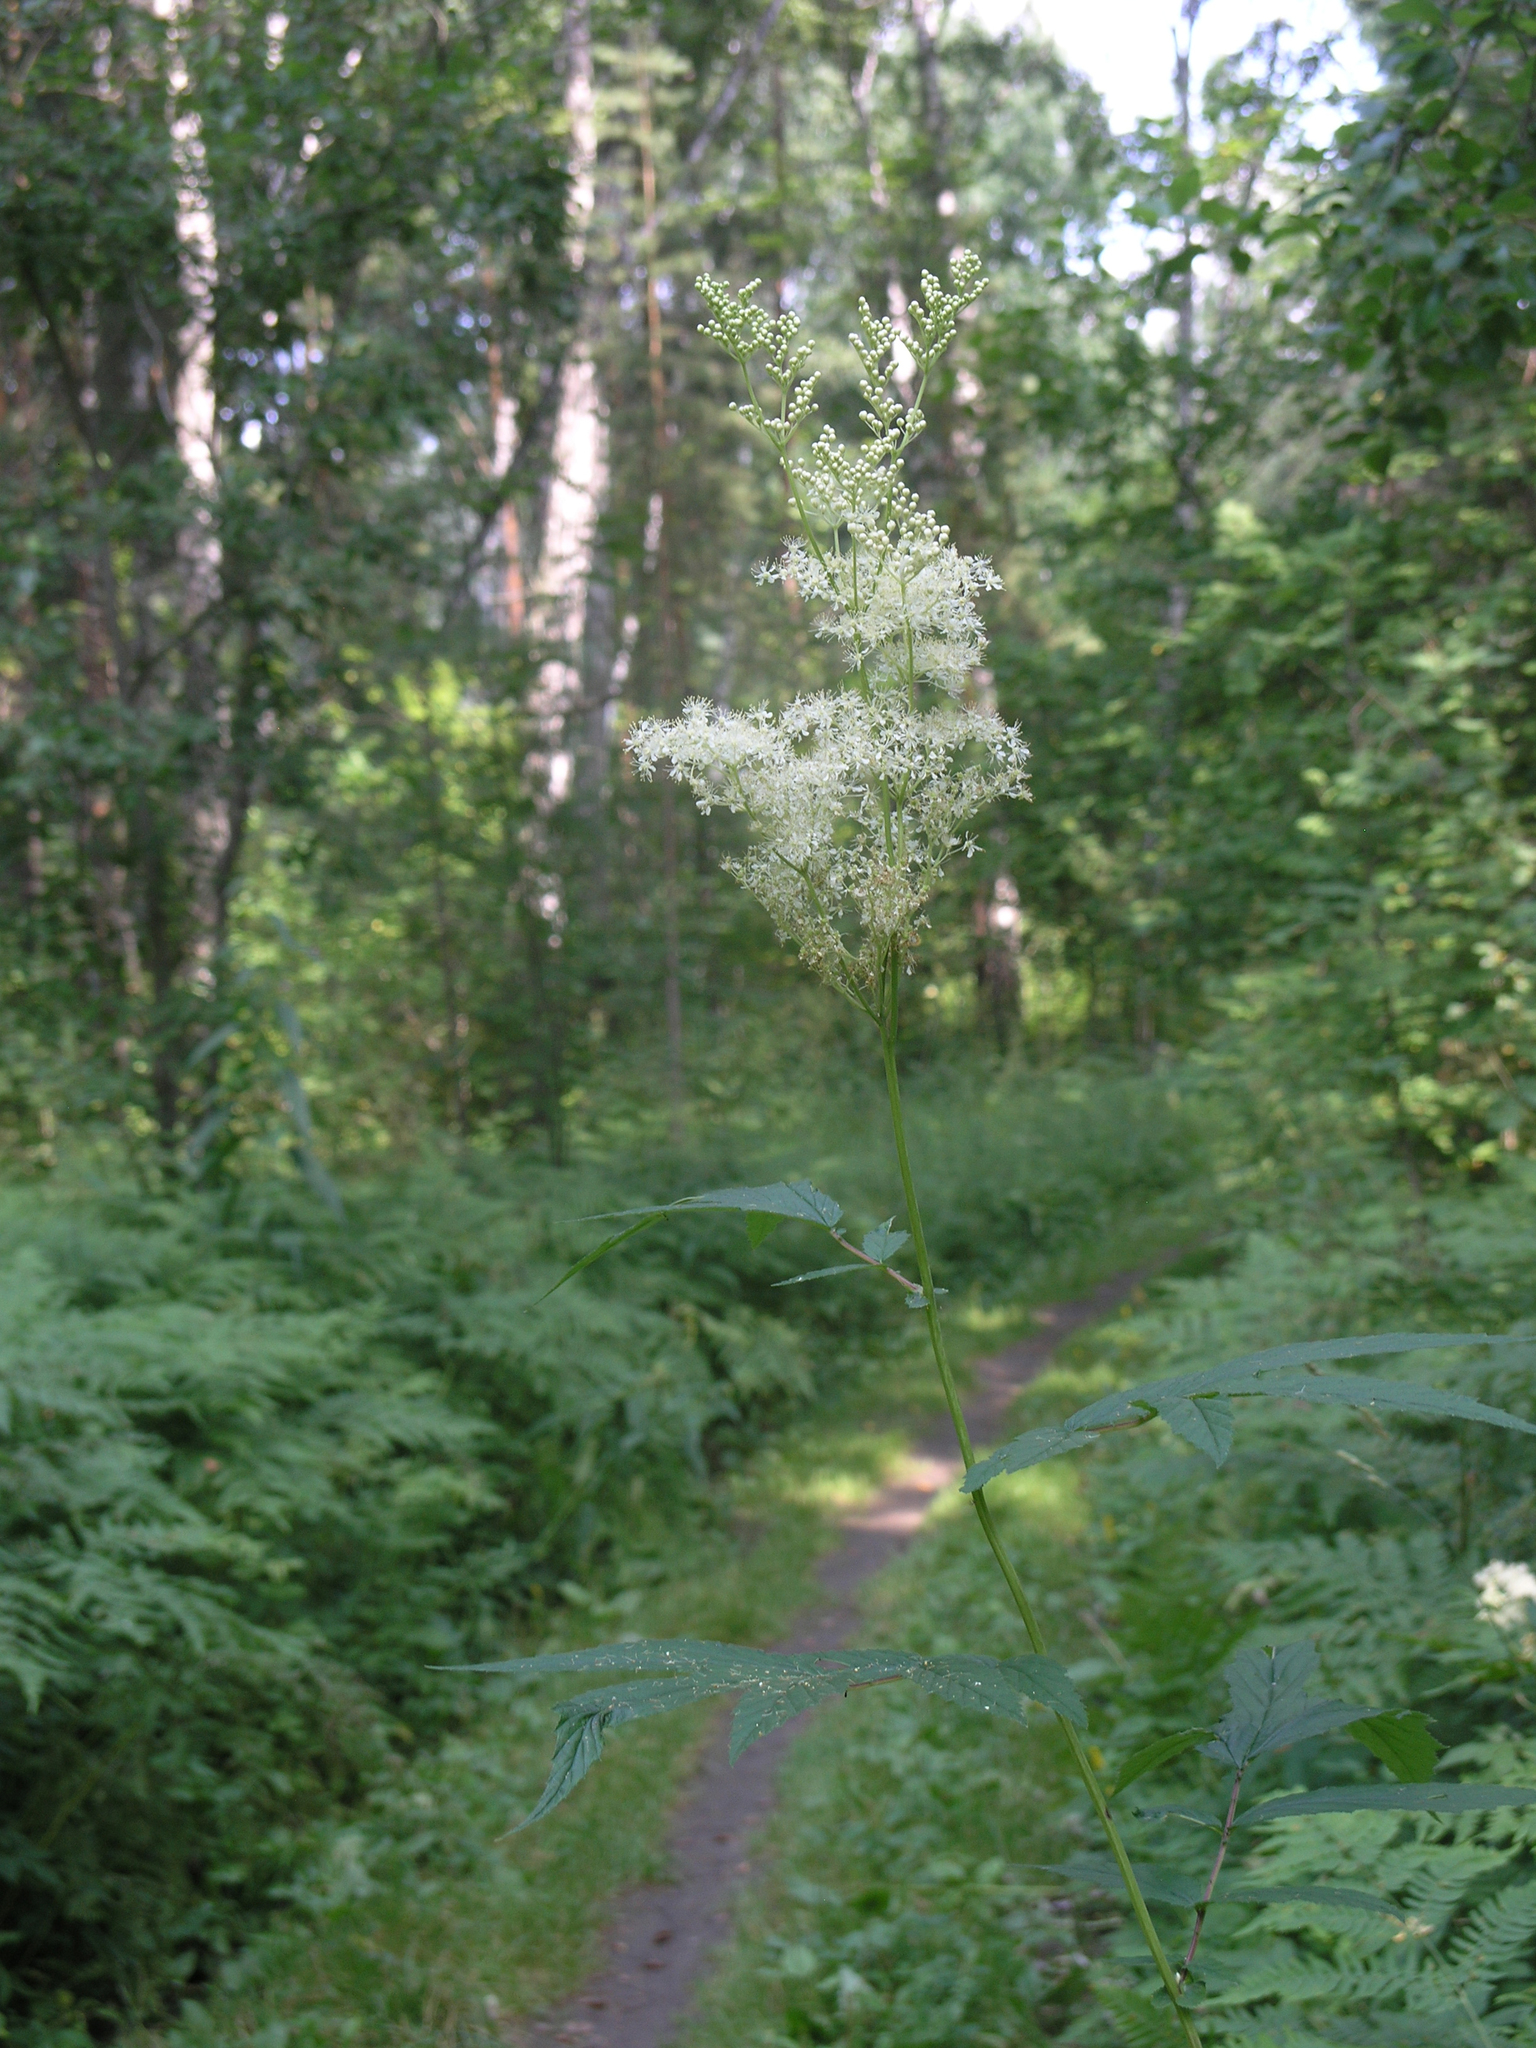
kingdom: Plantae
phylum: Tracheophyta
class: Magnoliopsida
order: Rosales
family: Rosaceae
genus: Filipendula
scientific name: Filipendula ulmaria
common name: Meadowsweet
